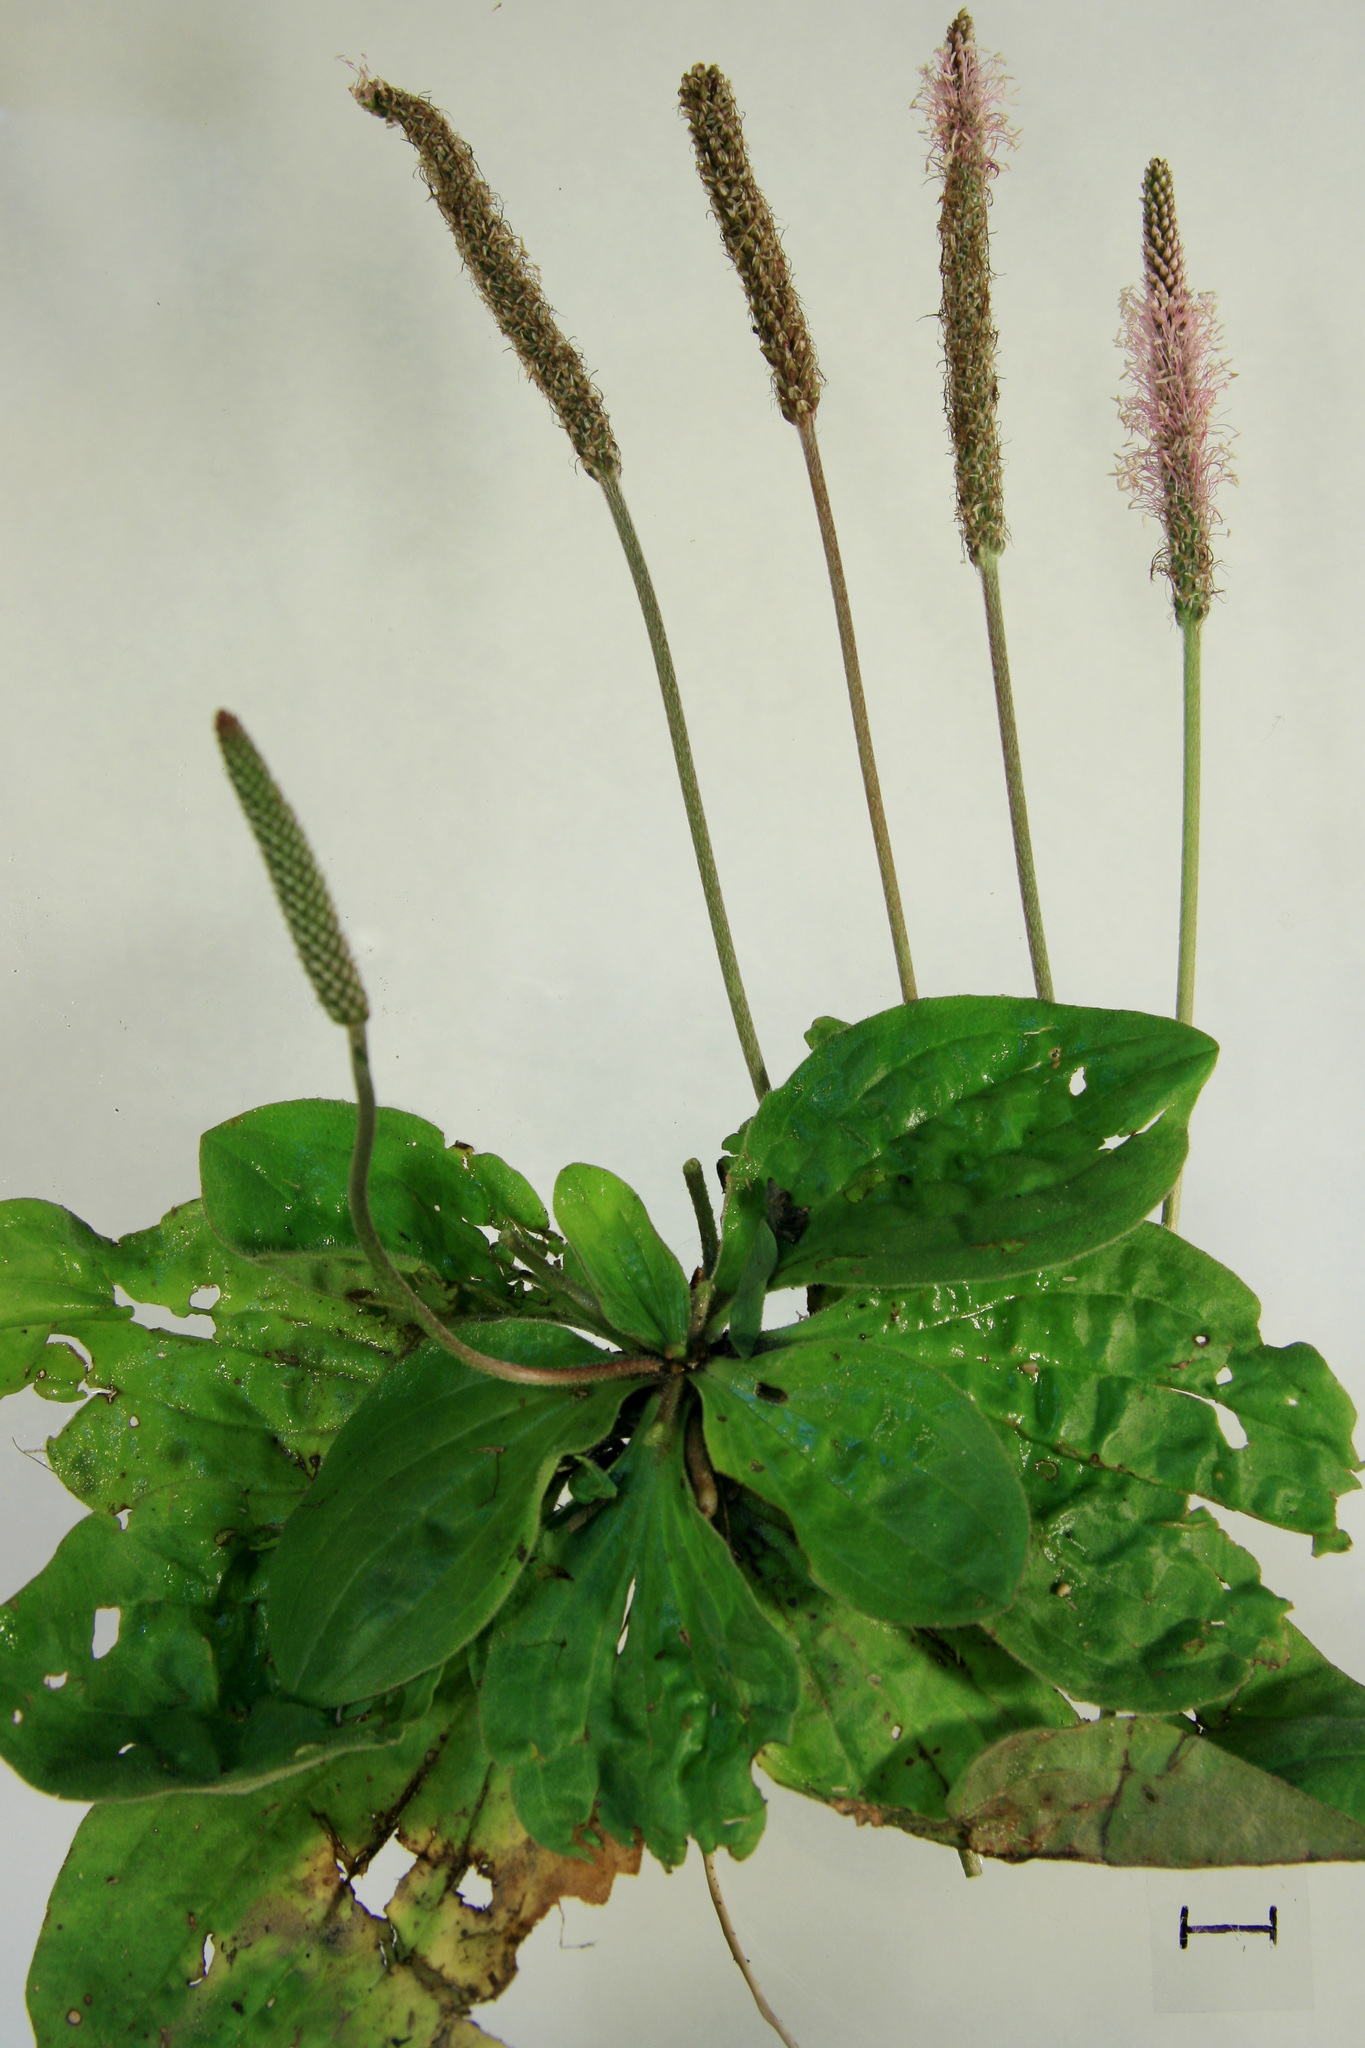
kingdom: Plantae
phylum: Tracheophyta
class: Magnoliopsida
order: Lamiales
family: Plantaginaceae
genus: Plantago
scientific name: Plantago media
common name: Hoary plantain
